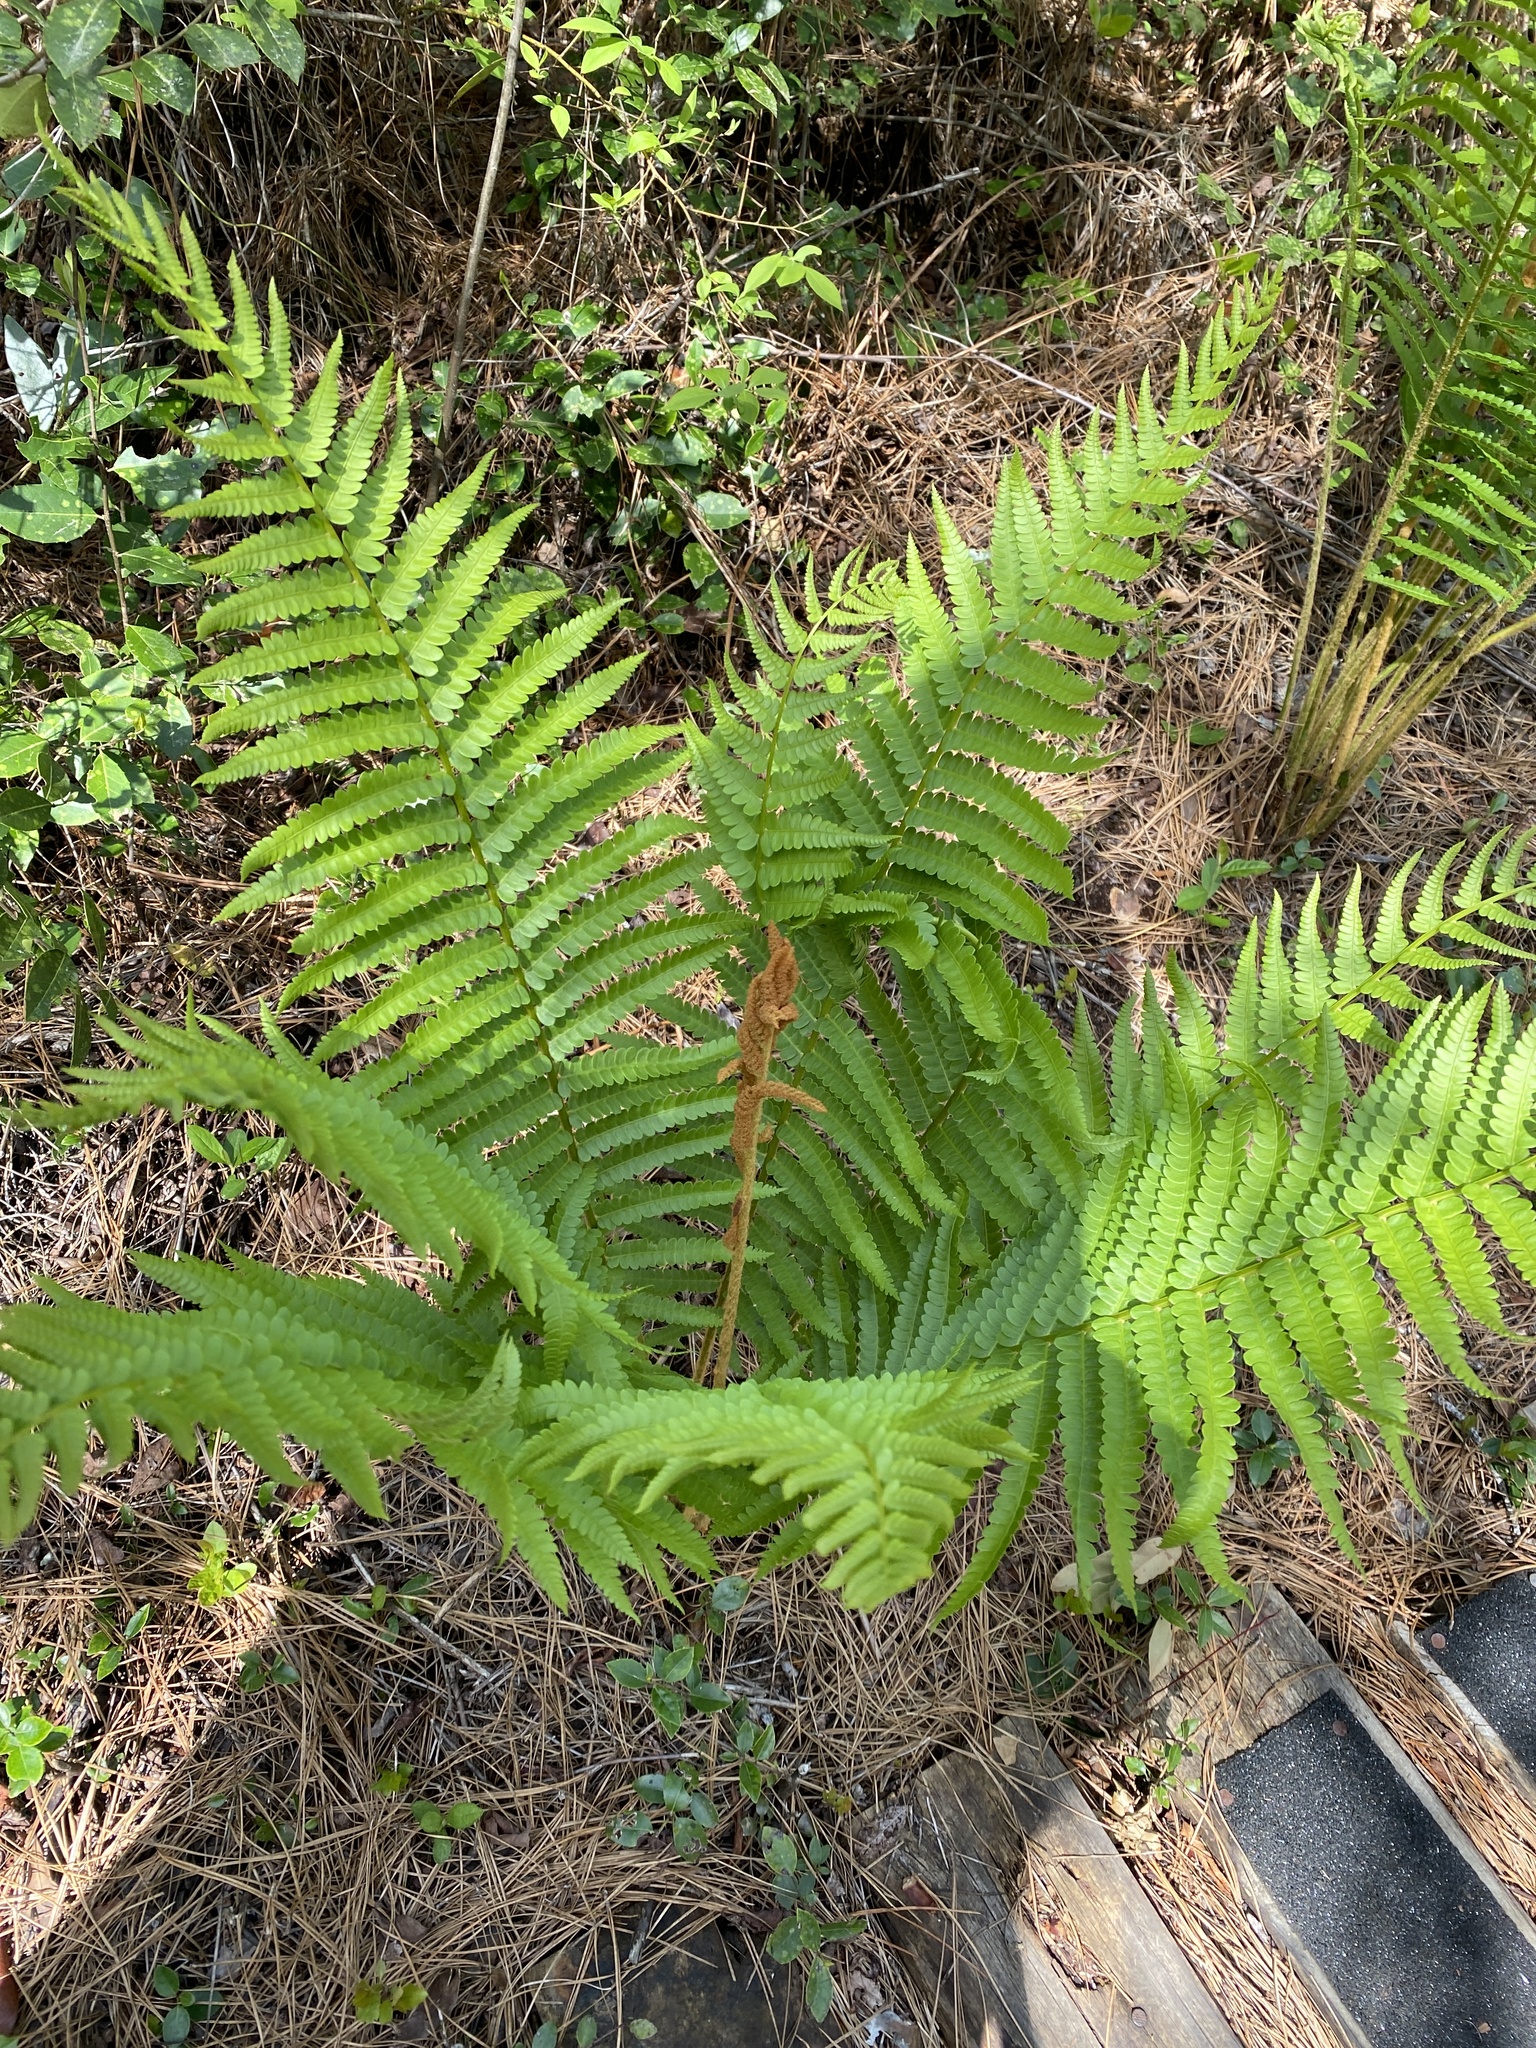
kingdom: Plantae
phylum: Tracheophyta
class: Polypodiopsida
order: Osmundales
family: Osmundaceae
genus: Osmundastrum
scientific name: Osmundastrum cinnamomeum
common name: Cinnamon fern
